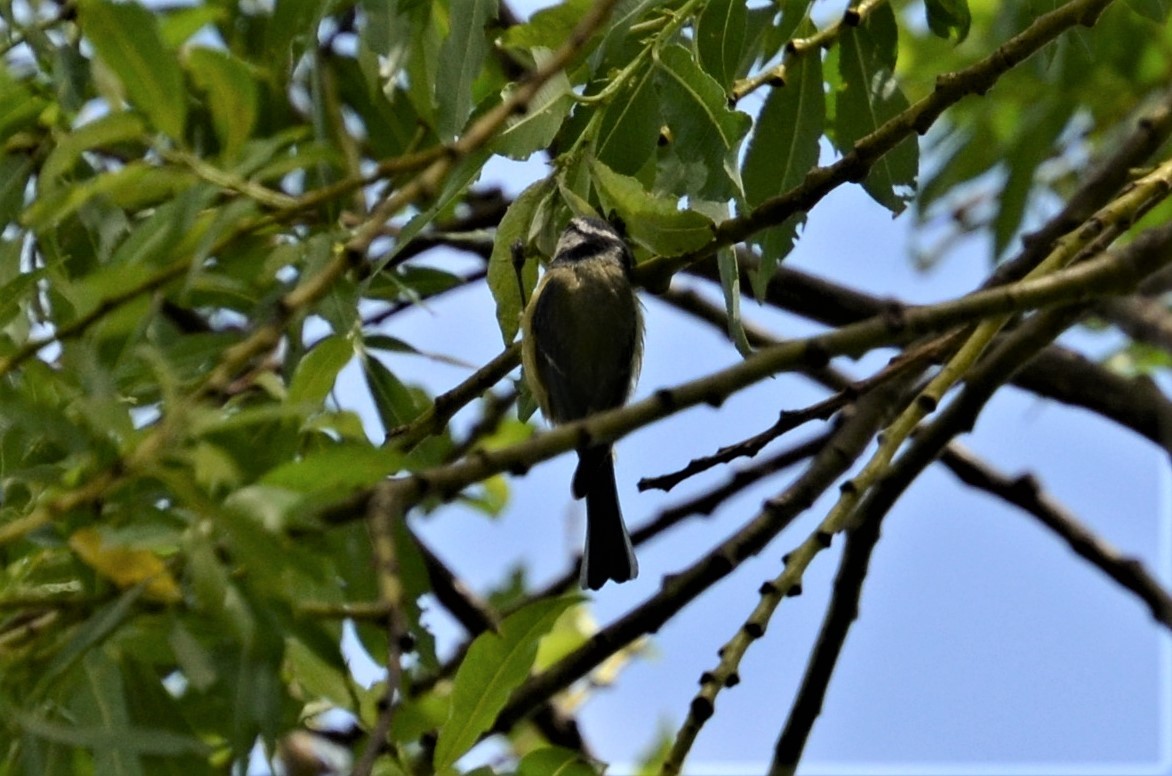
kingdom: Animalia
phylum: Chordata
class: Aves
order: Passeriformes
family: Paridae
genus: Cyanistes
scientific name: Cyanistes caeruleus
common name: Eurasian blue tit
